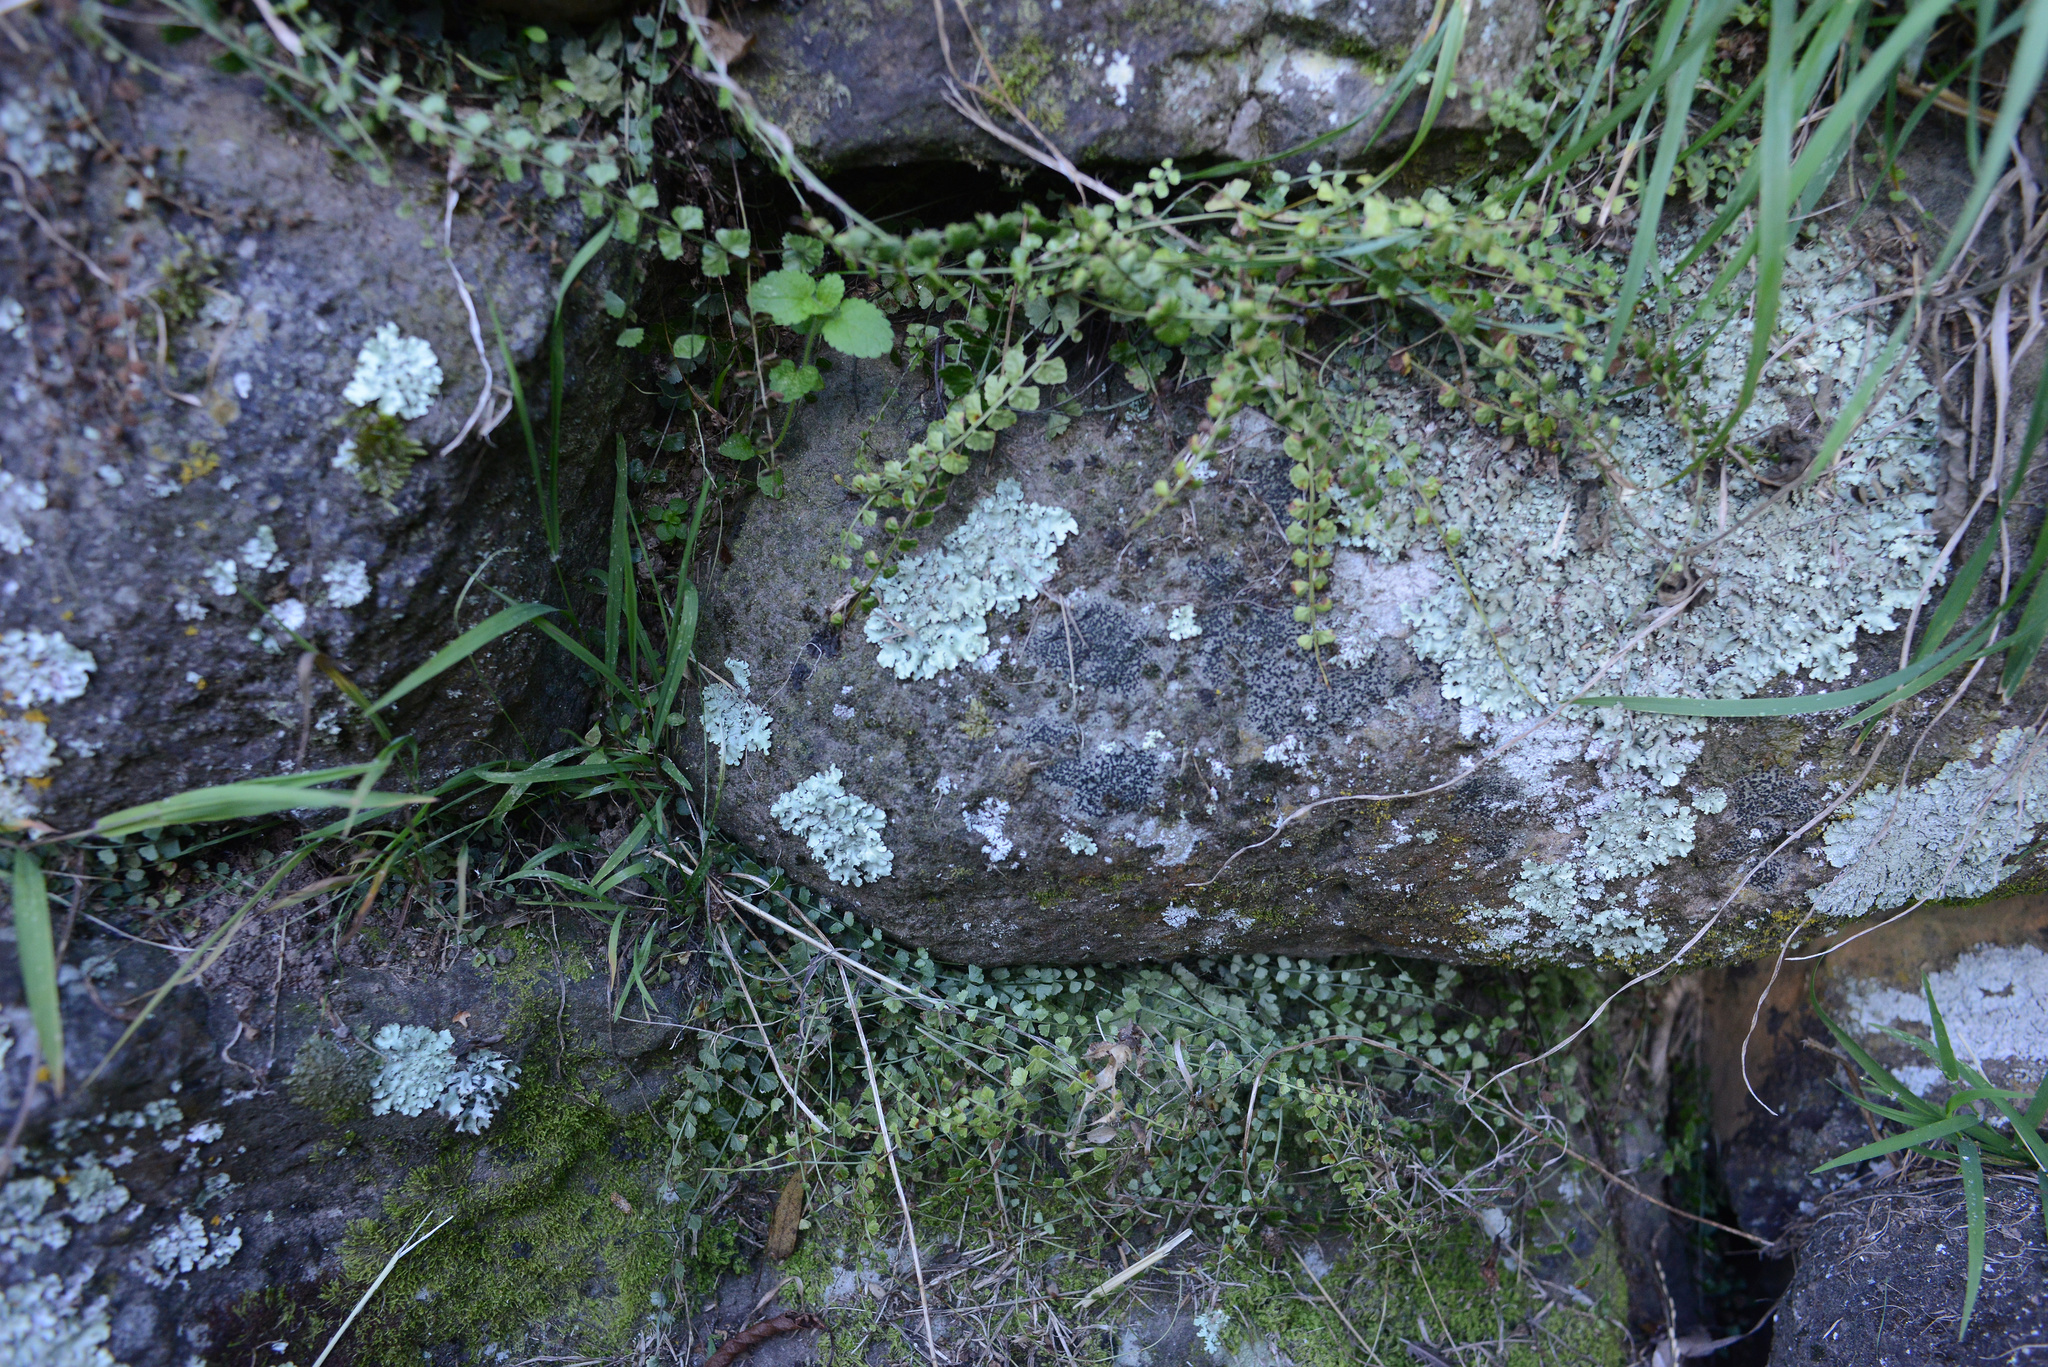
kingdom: Plantae
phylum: Tracheophyta
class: Polypodiopsida
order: Polypodiales
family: Aspleniaceae
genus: Asplenium
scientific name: Asplenium flabellifolium
